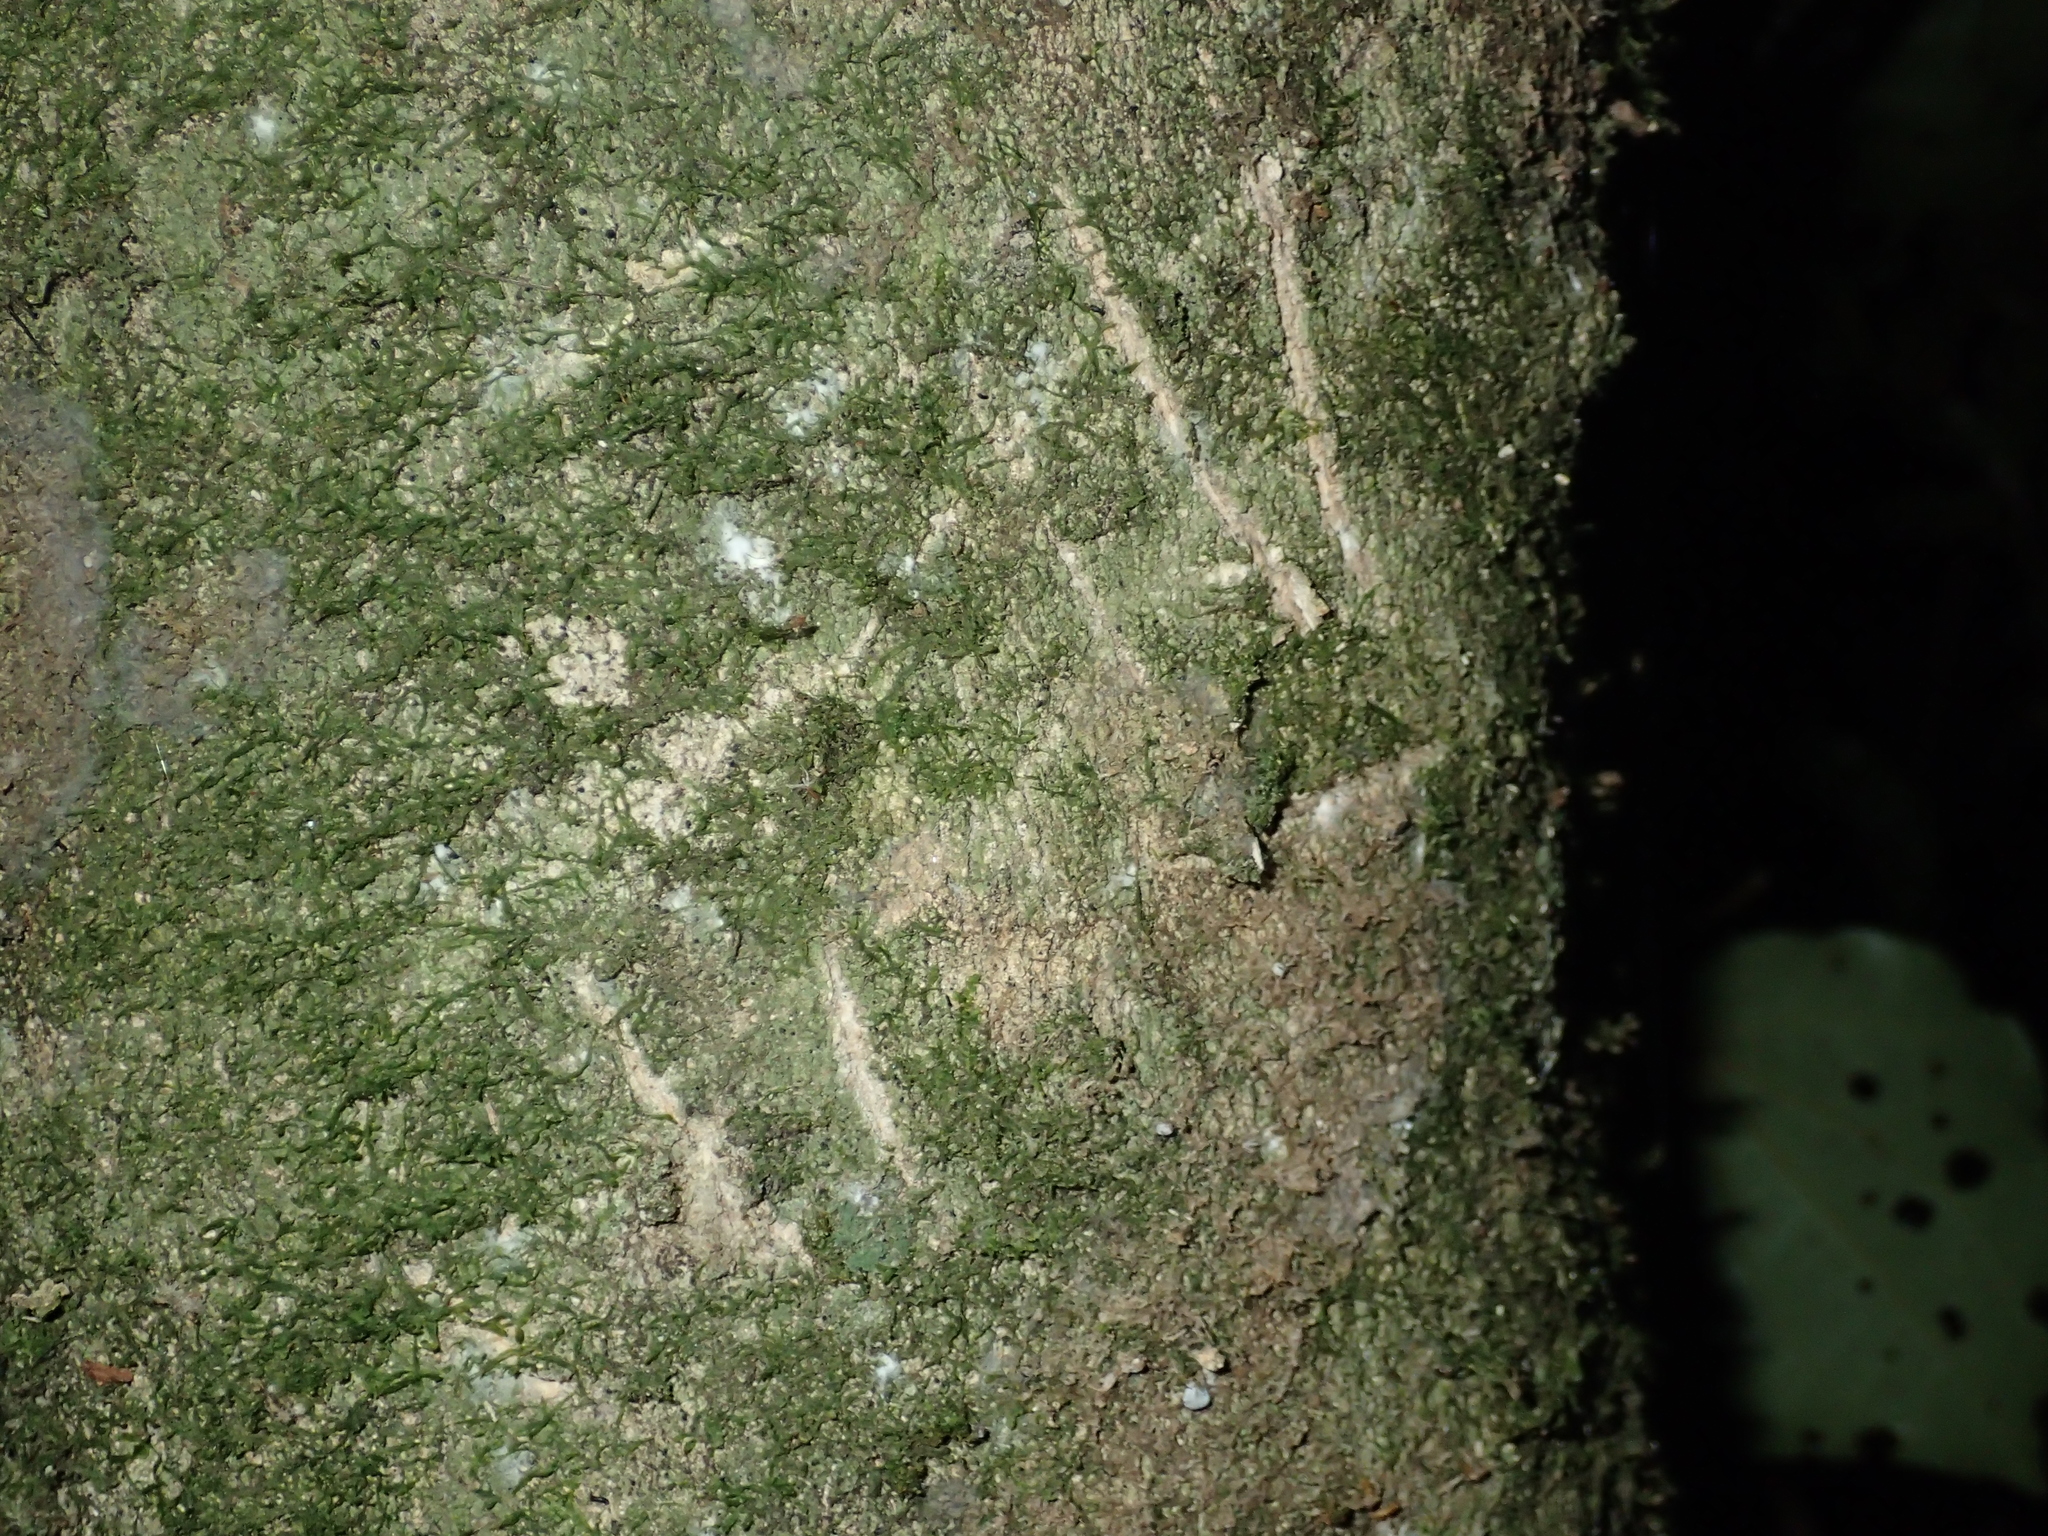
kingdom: Animalia
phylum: Chordata
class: Mammalia
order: Diprotodontia
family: Phalangeridae
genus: Trichosurus
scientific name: Trichosurus vulpecula
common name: Common brushtail
